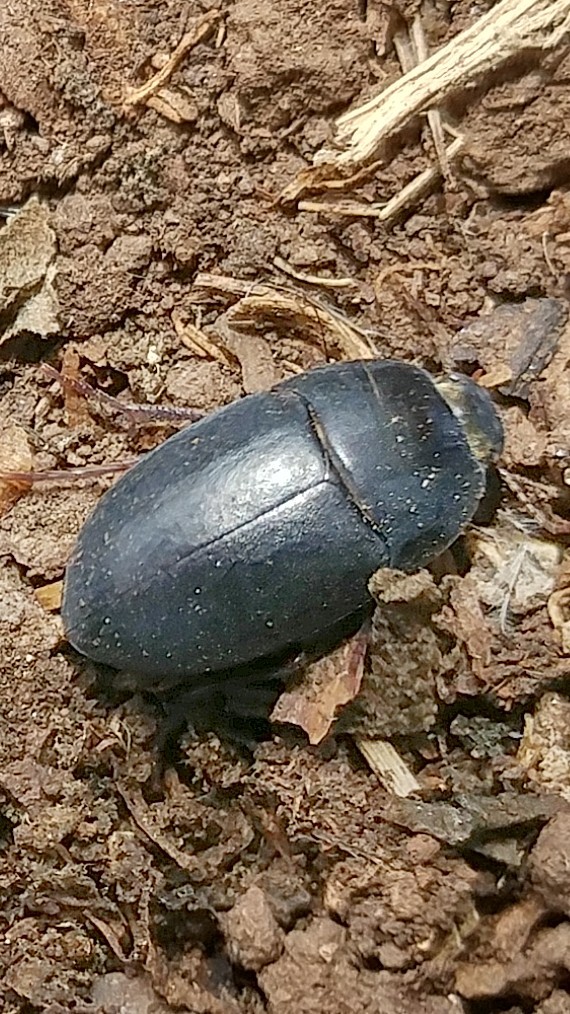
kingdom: Animalia
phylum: Arthropoda
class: Insecta
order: Coleoptera
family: Tenebrionidae
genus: Coniontis
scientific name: Coniontis
